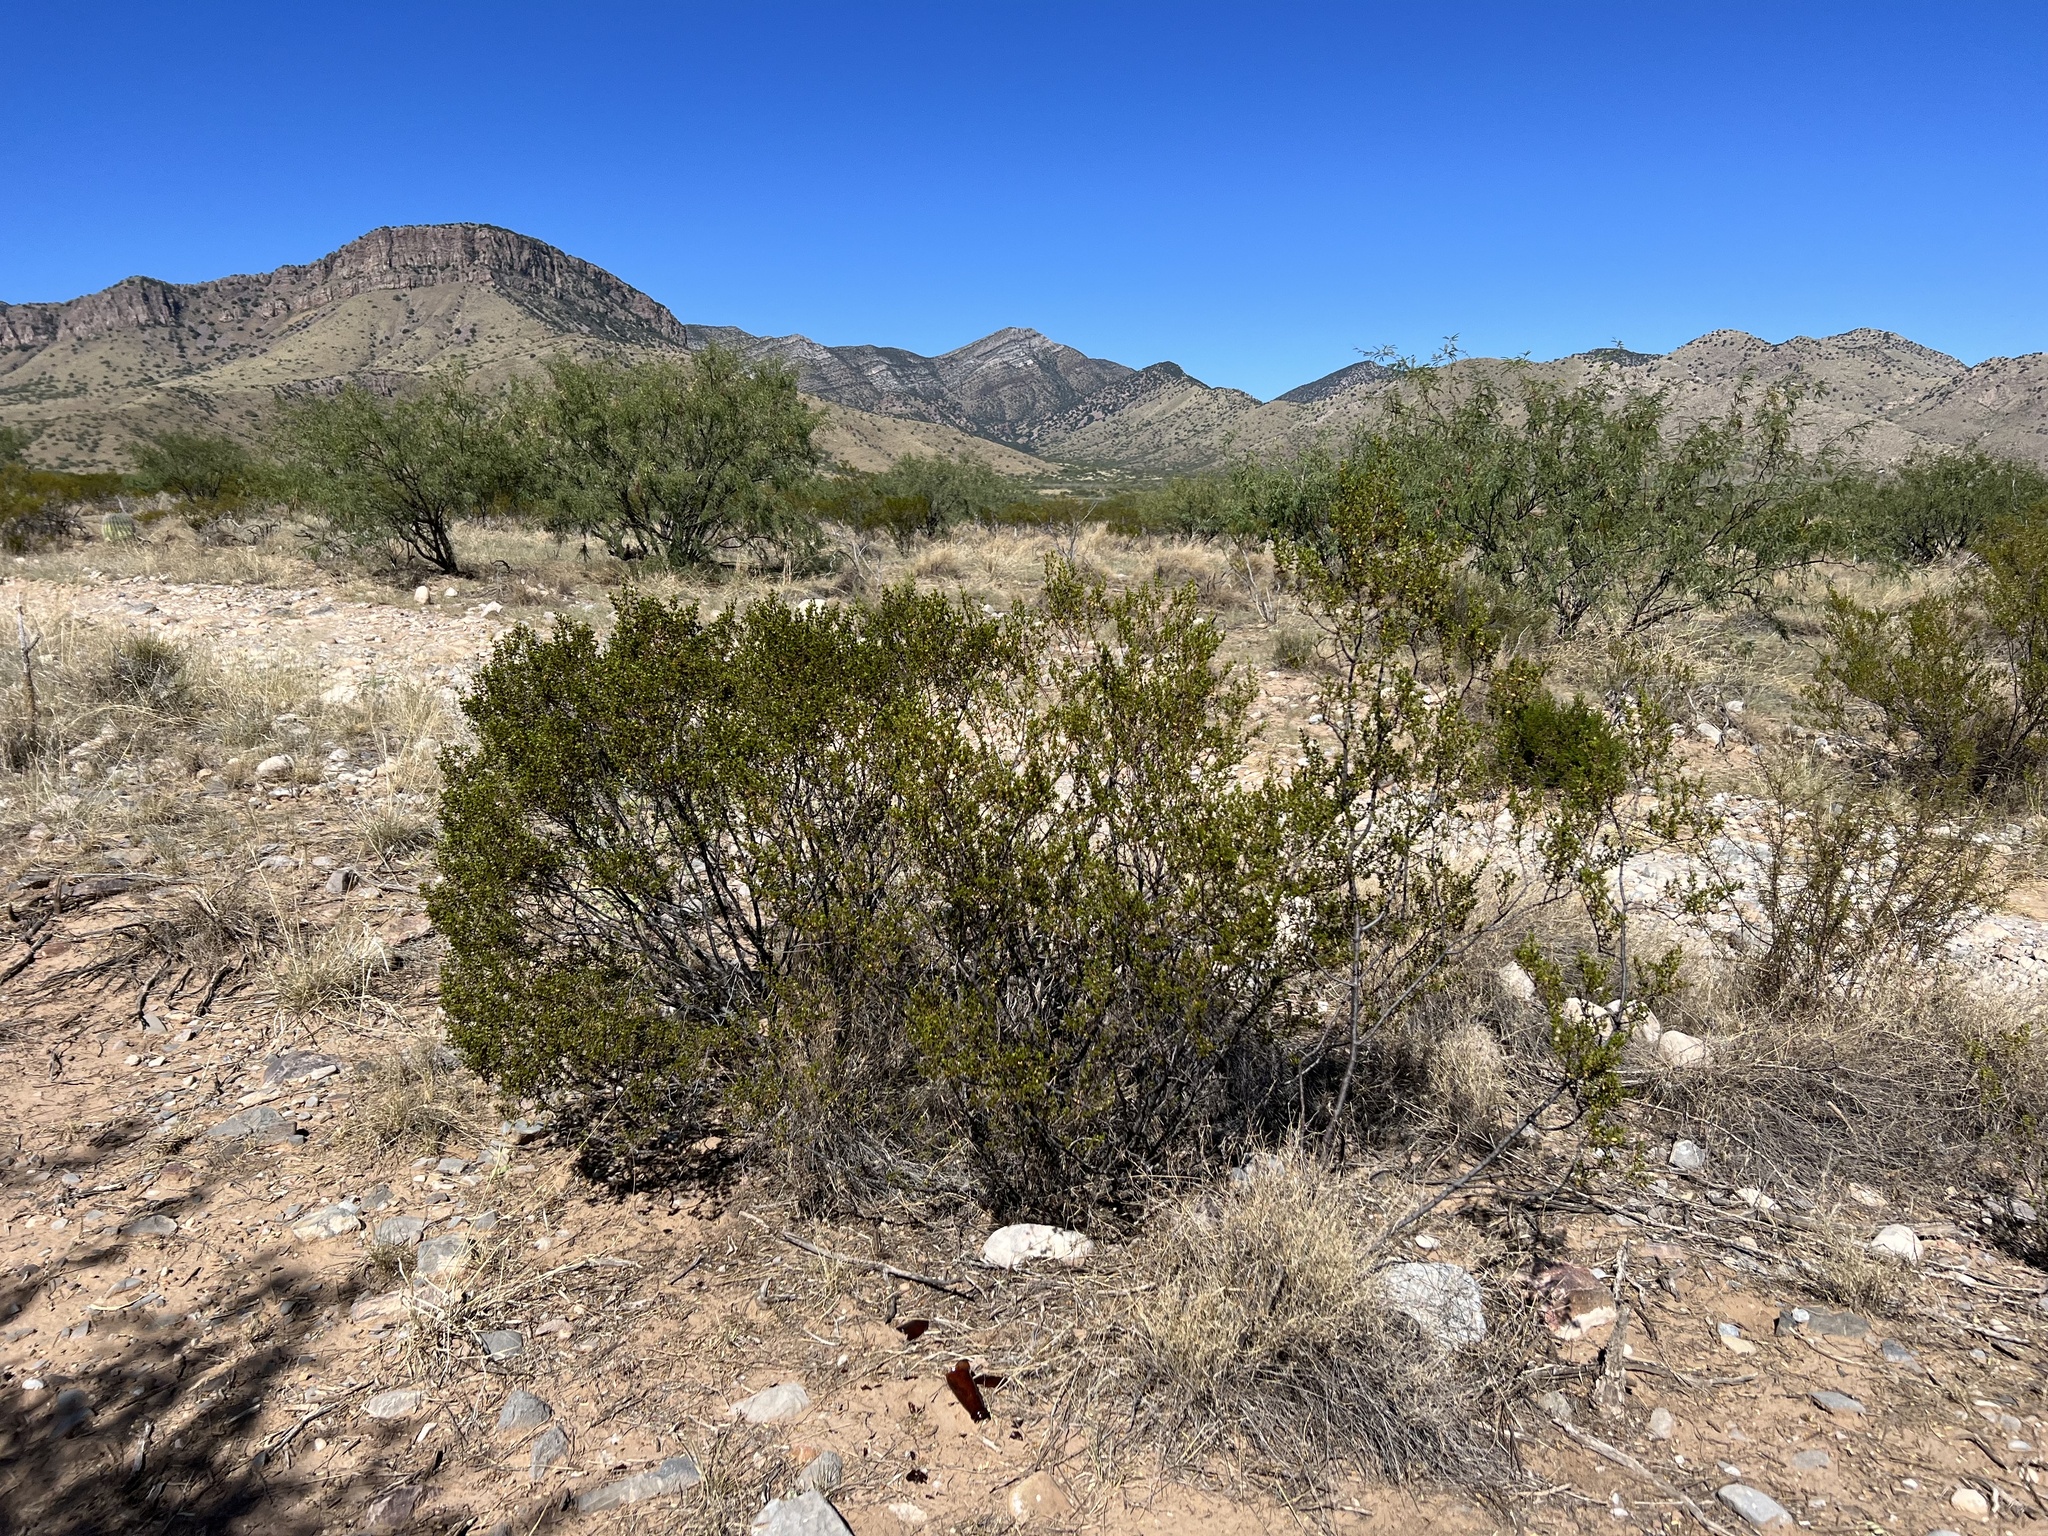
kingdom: Plantae
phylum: Tracheophyta
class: Magnoliopsida
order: Zygophyllales
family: Zygophyllaceae
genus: Larrea
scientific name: Larrea tridentata
